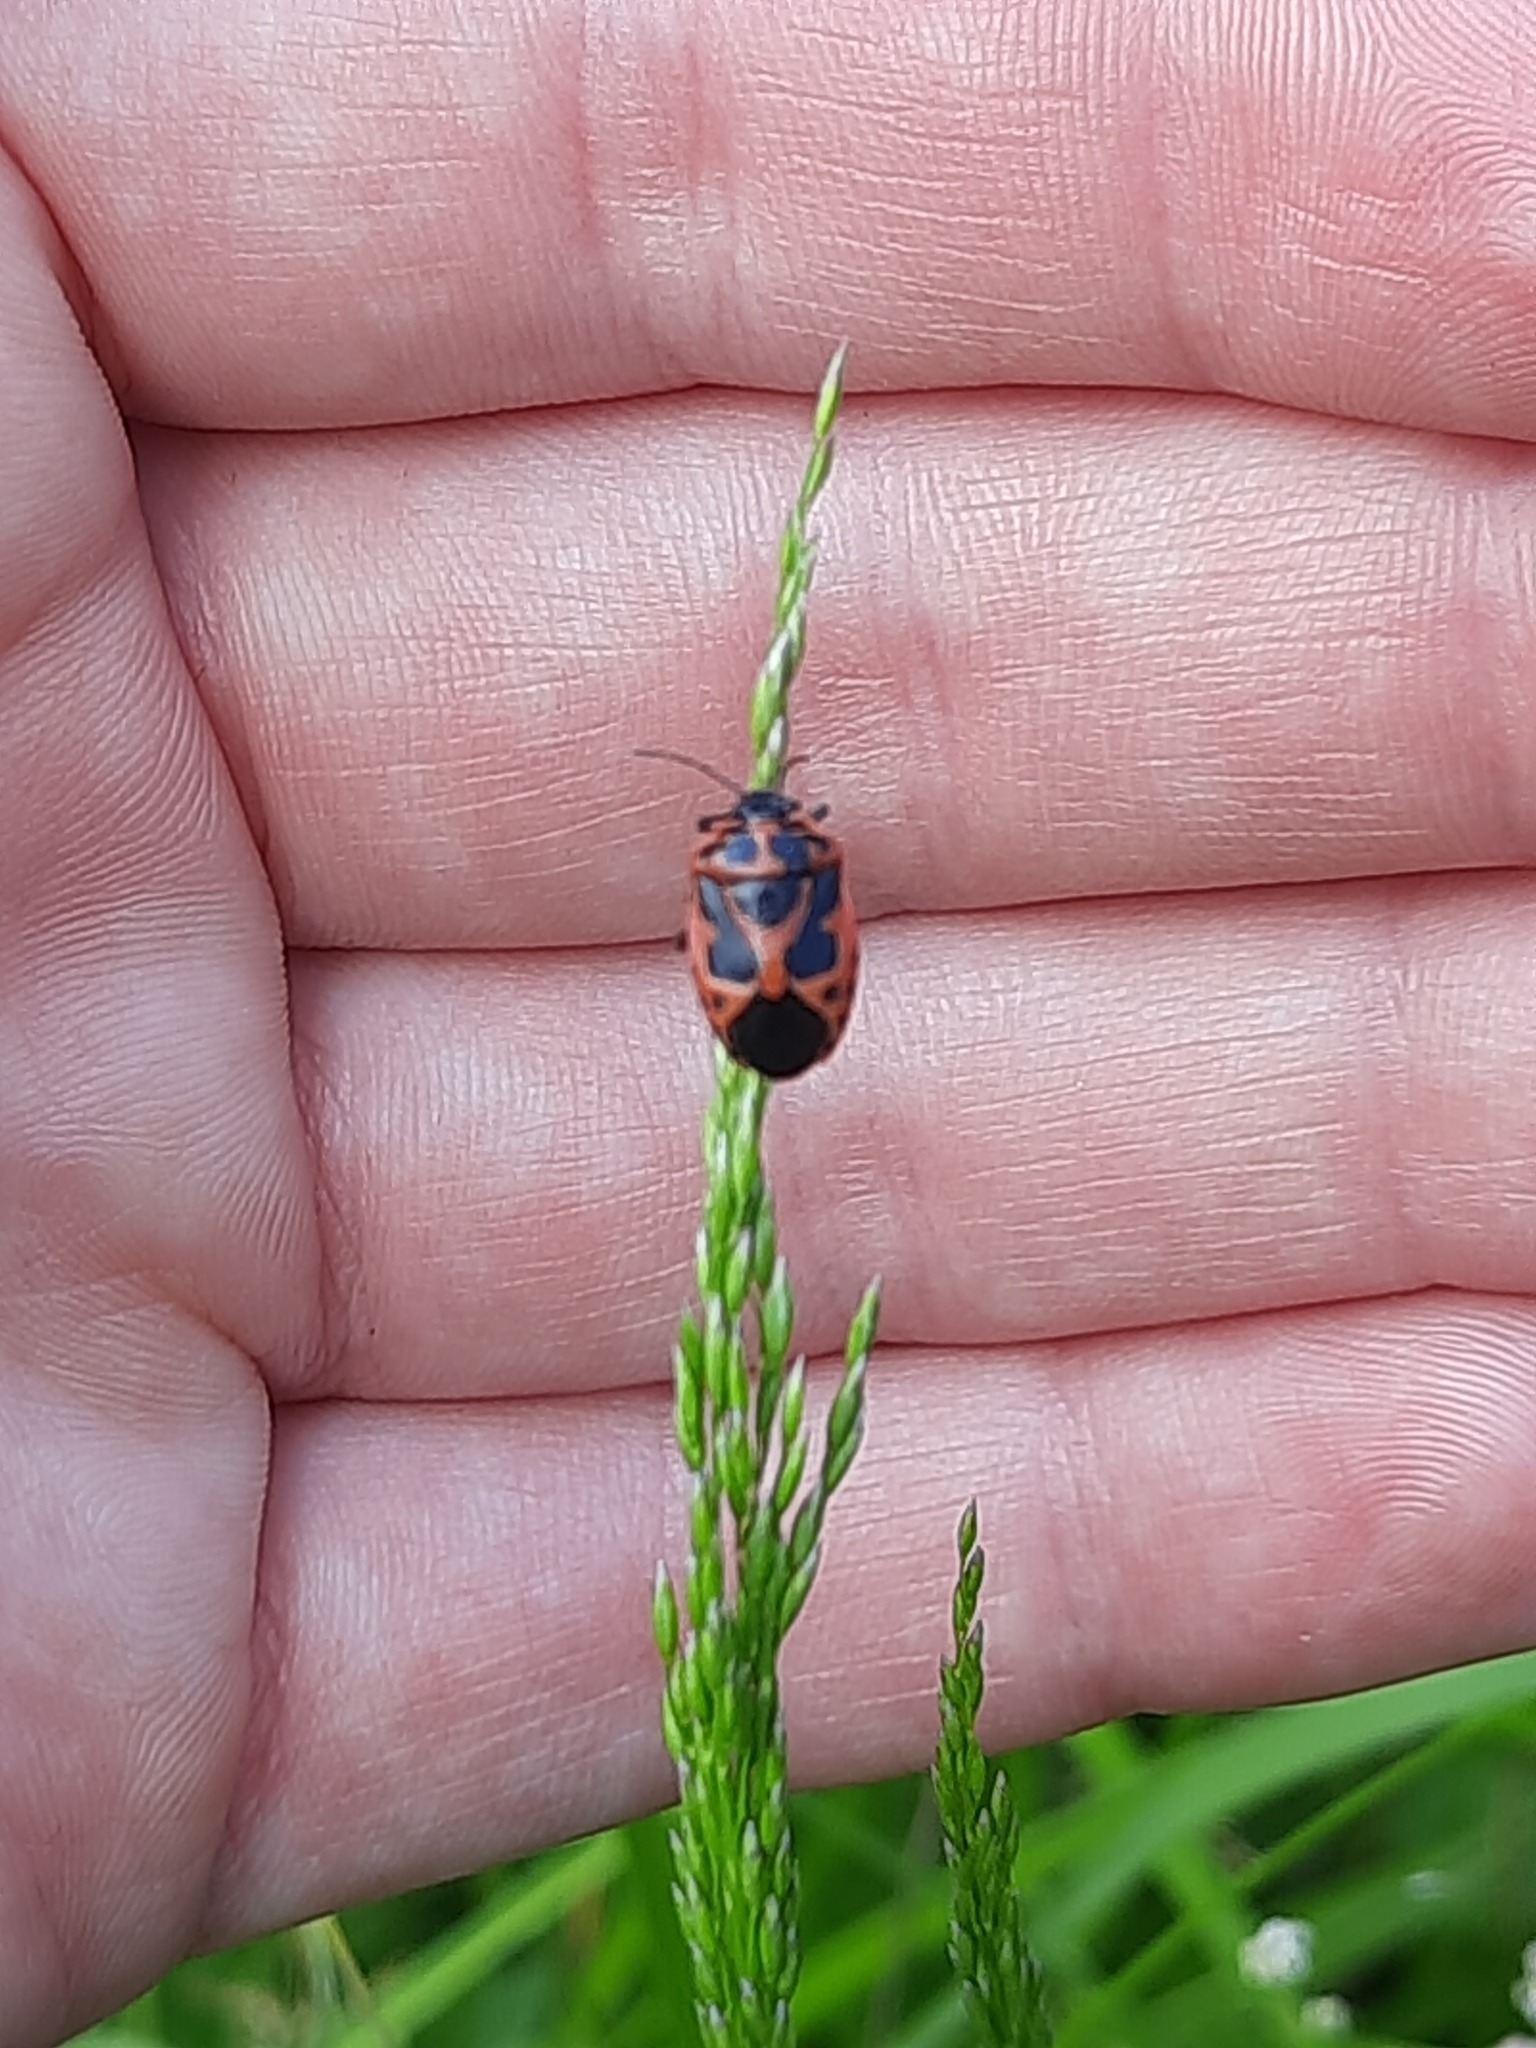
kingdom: Animalia
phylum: Arthropoda
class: Insecta
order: Hemiptera
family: Pentatomidae
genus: Eurydema
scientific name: Eurydema dominulus
